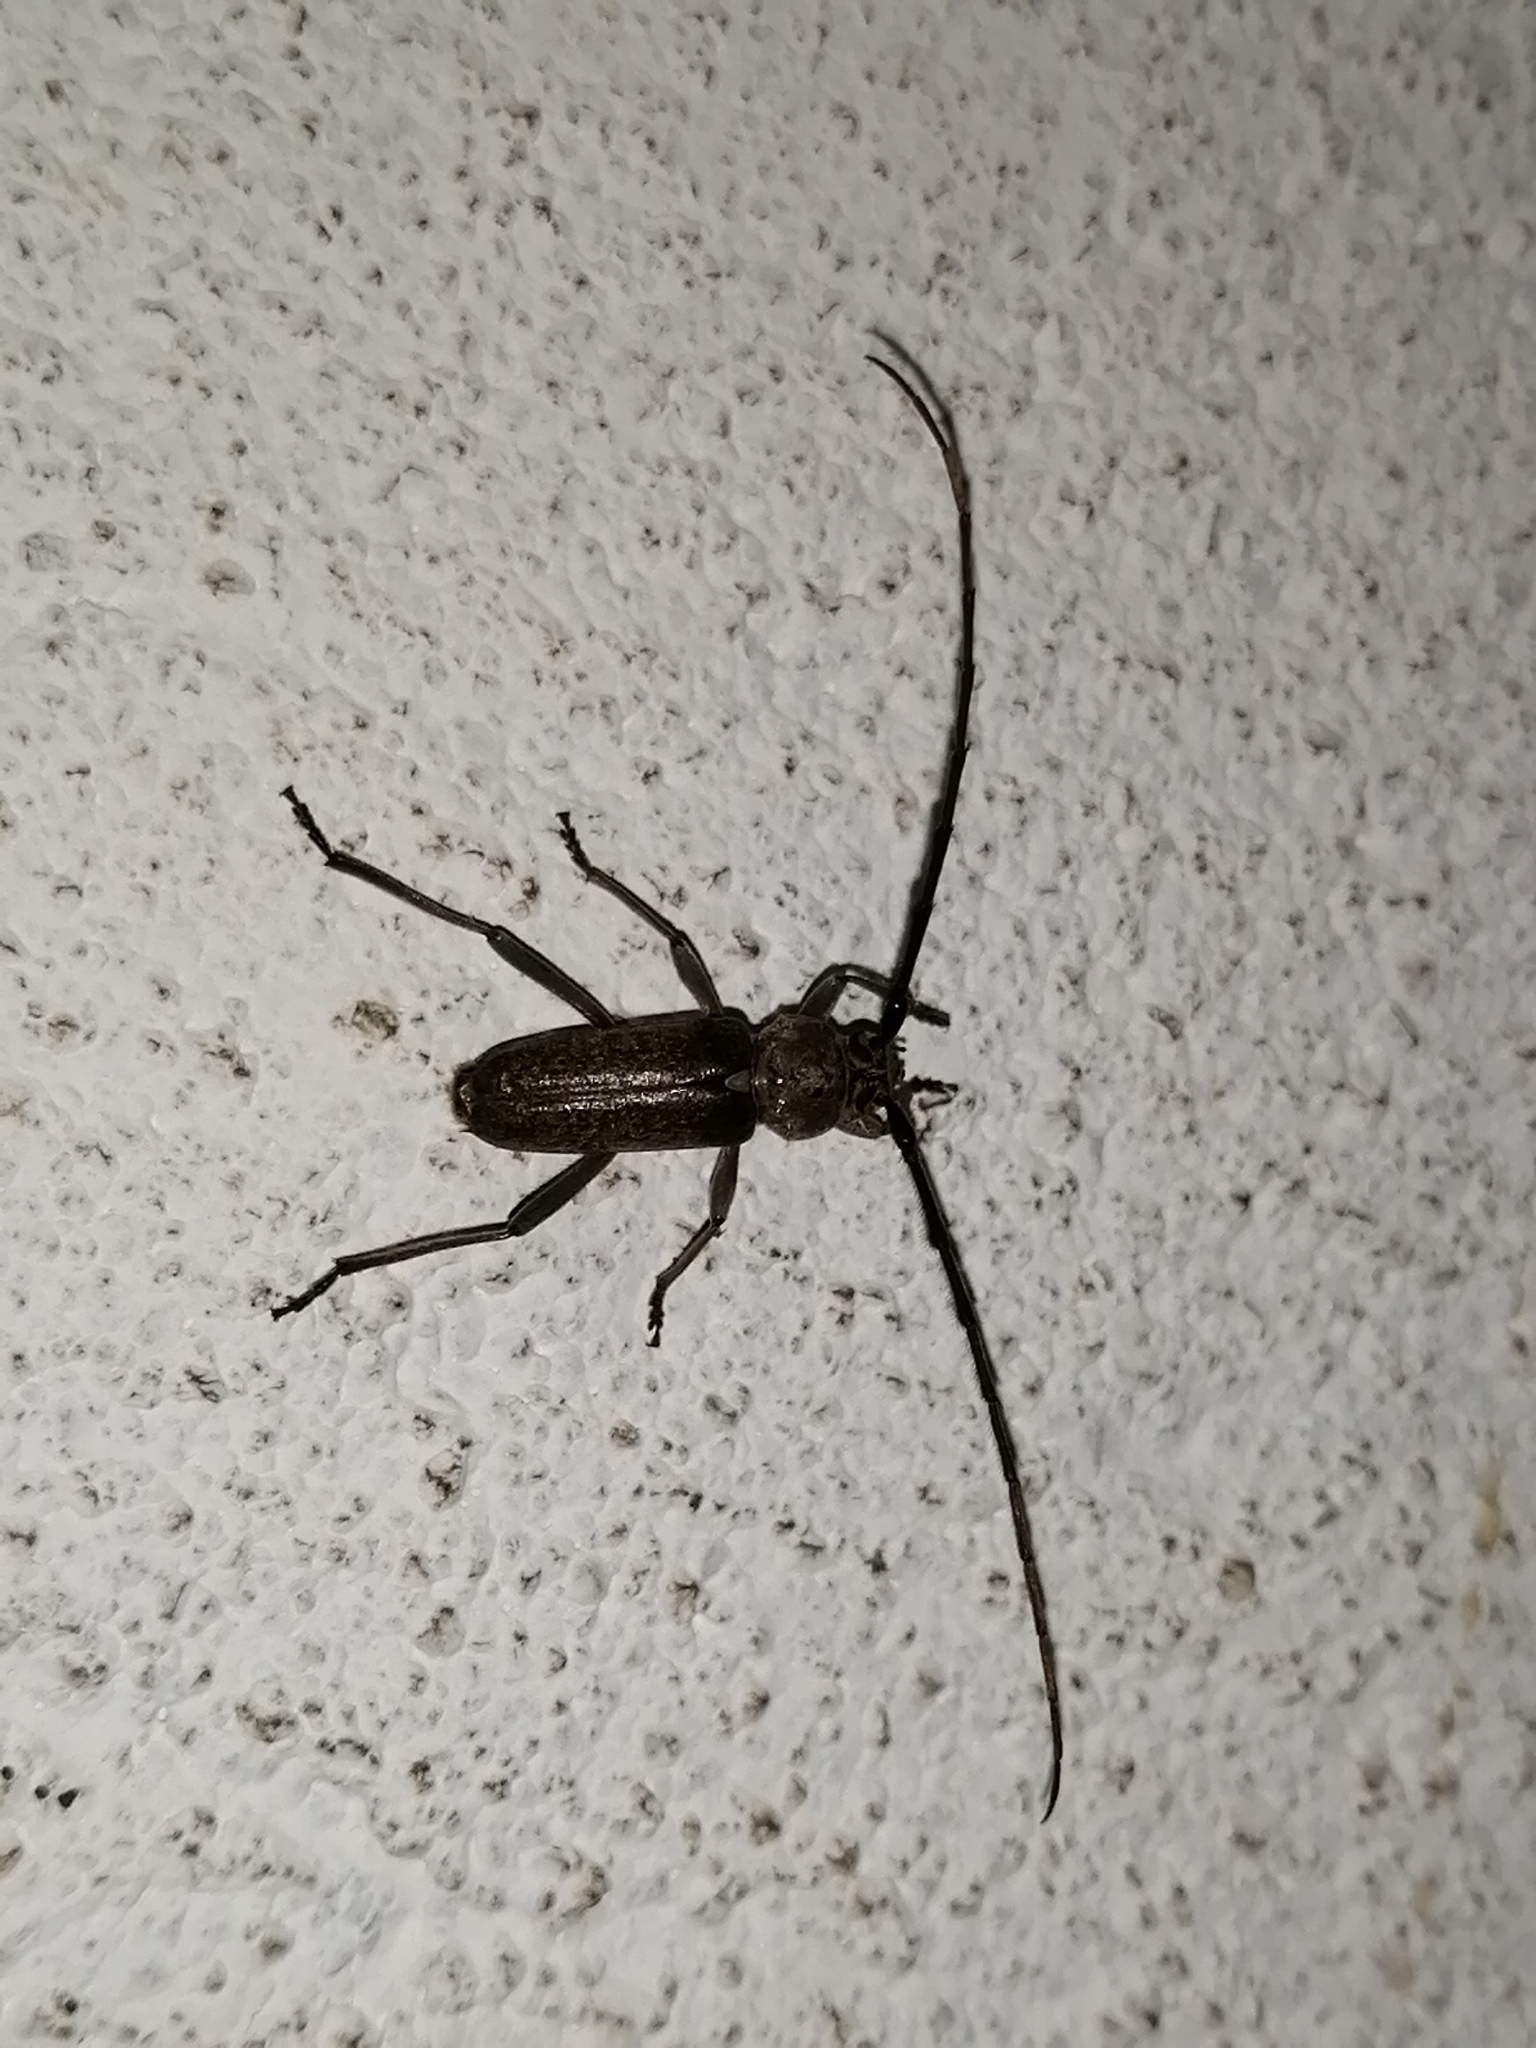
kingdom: Animalia
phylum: Arthropoda
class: Insecta
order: Coleoptera
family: Cerambycidae
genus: Gnaphalodes
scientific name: Gnaphalodes trachyderoides
